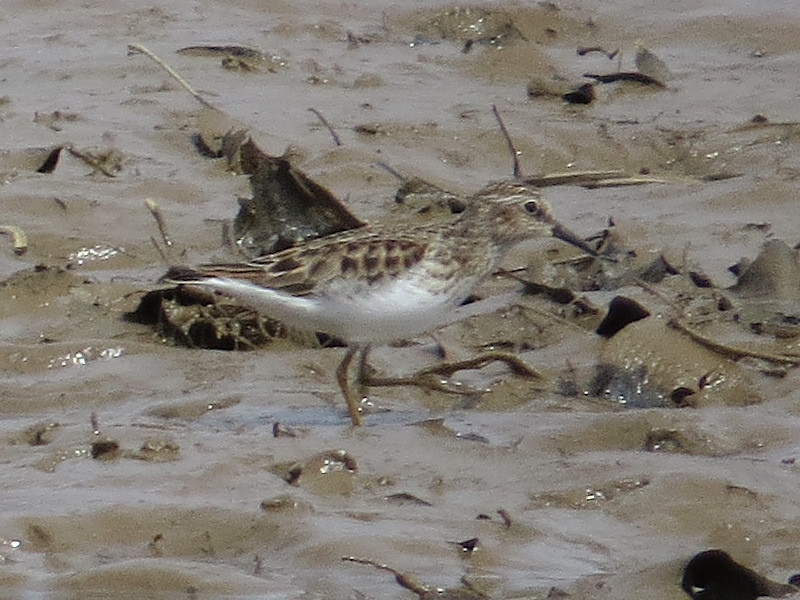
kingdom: Animalia
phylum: Chordata
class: Aves
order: Charadriiformes
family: Scolopacidae
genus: Calidris
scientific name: Calidris minutilla
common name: Least sandpiper
